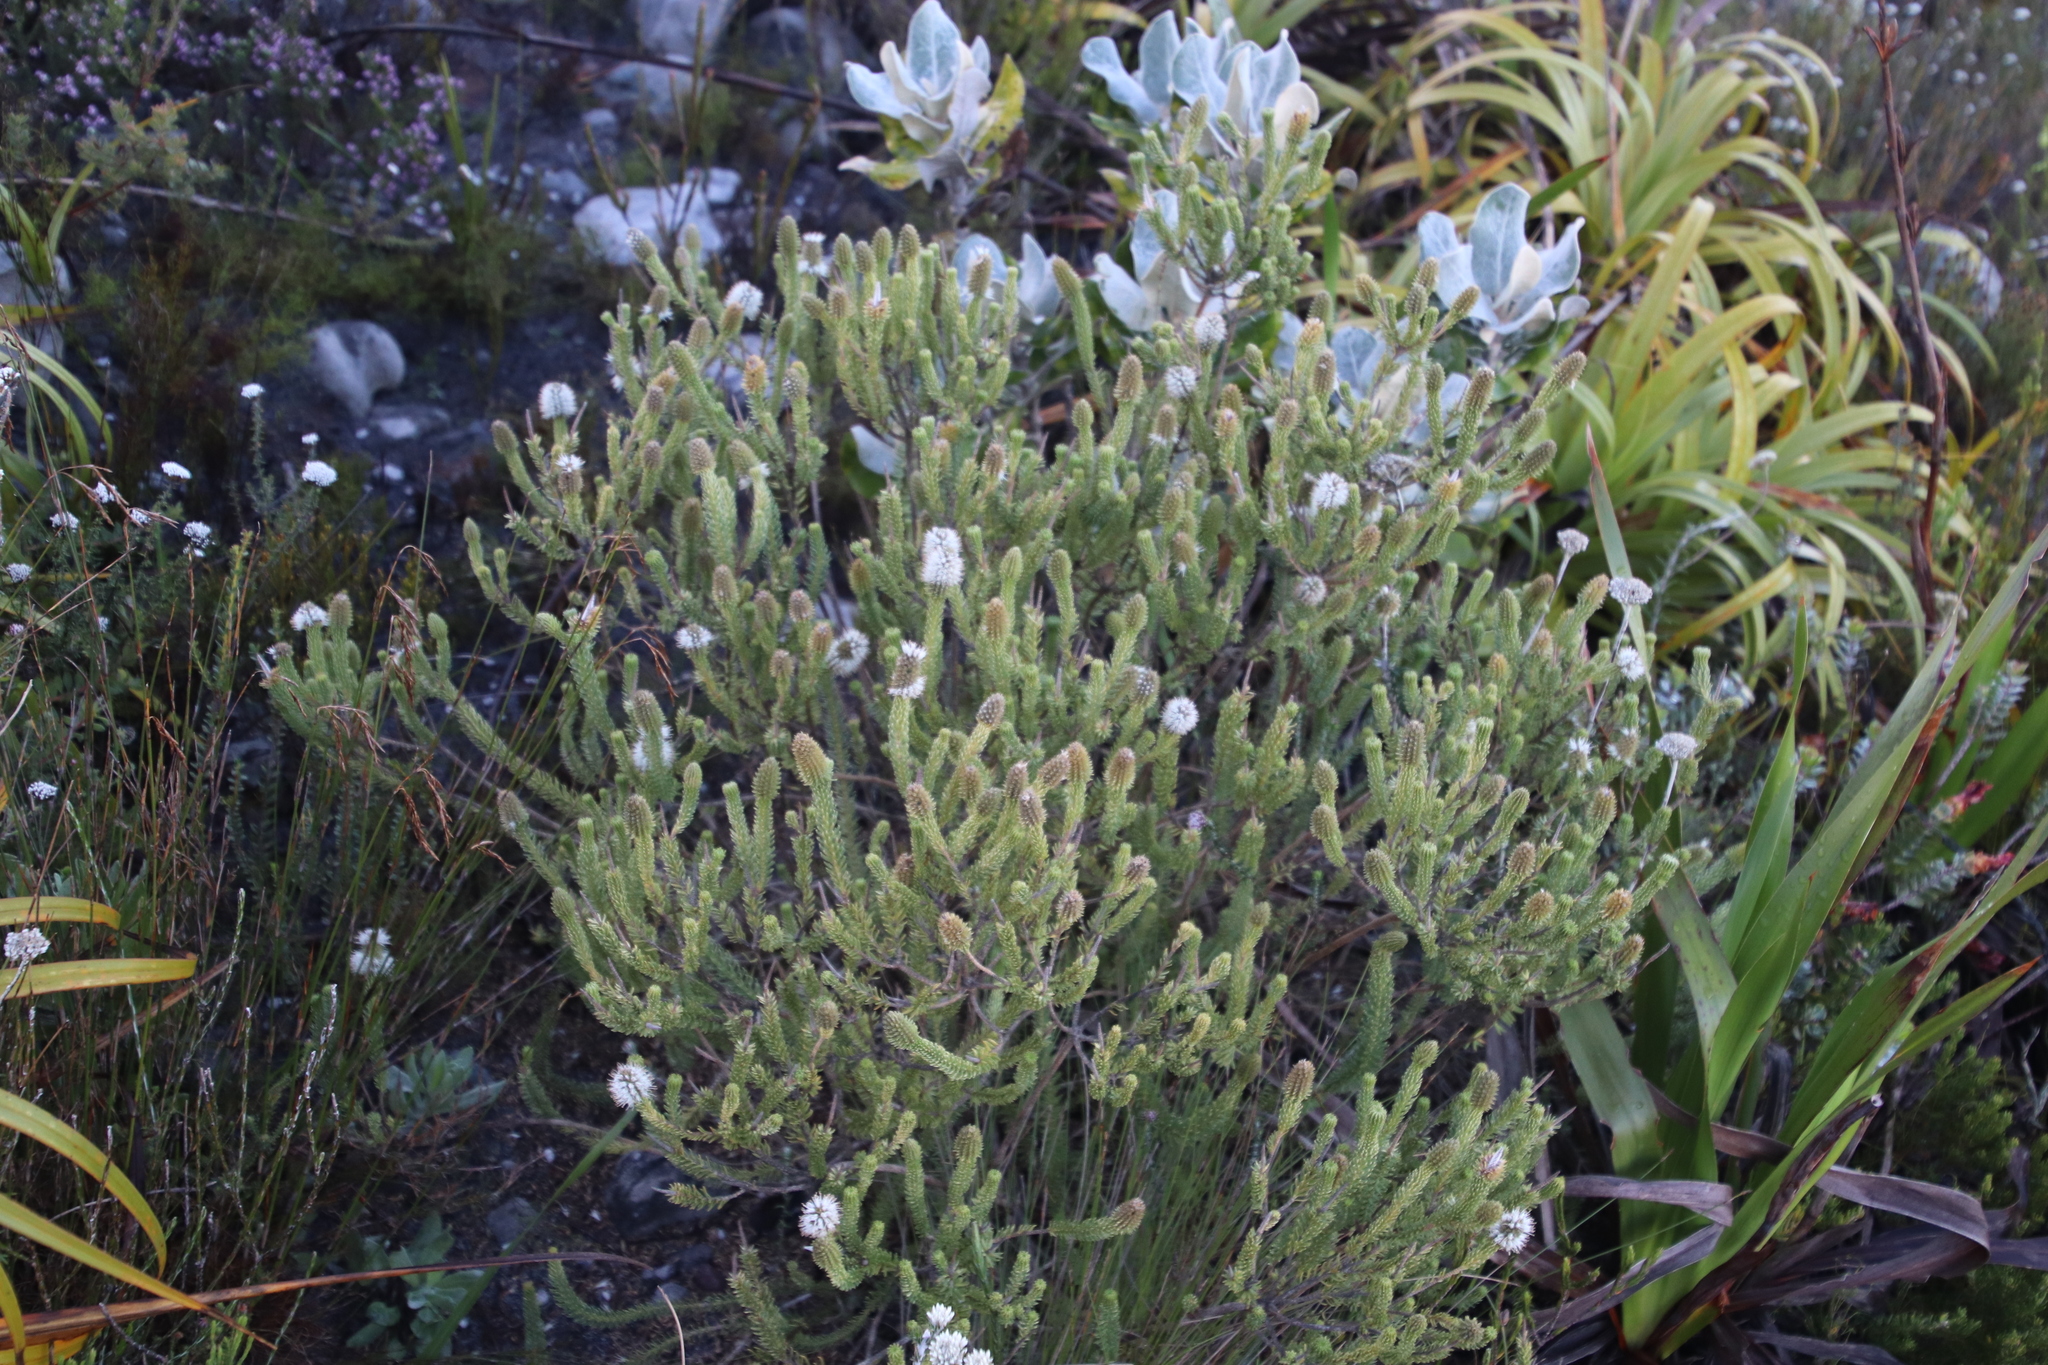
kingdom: Plantae
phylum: Tracheophyta
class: Magnoliopsida
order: Lamiales
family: Stilbaceae
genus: Stilbe
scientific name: Stilbe vestita
